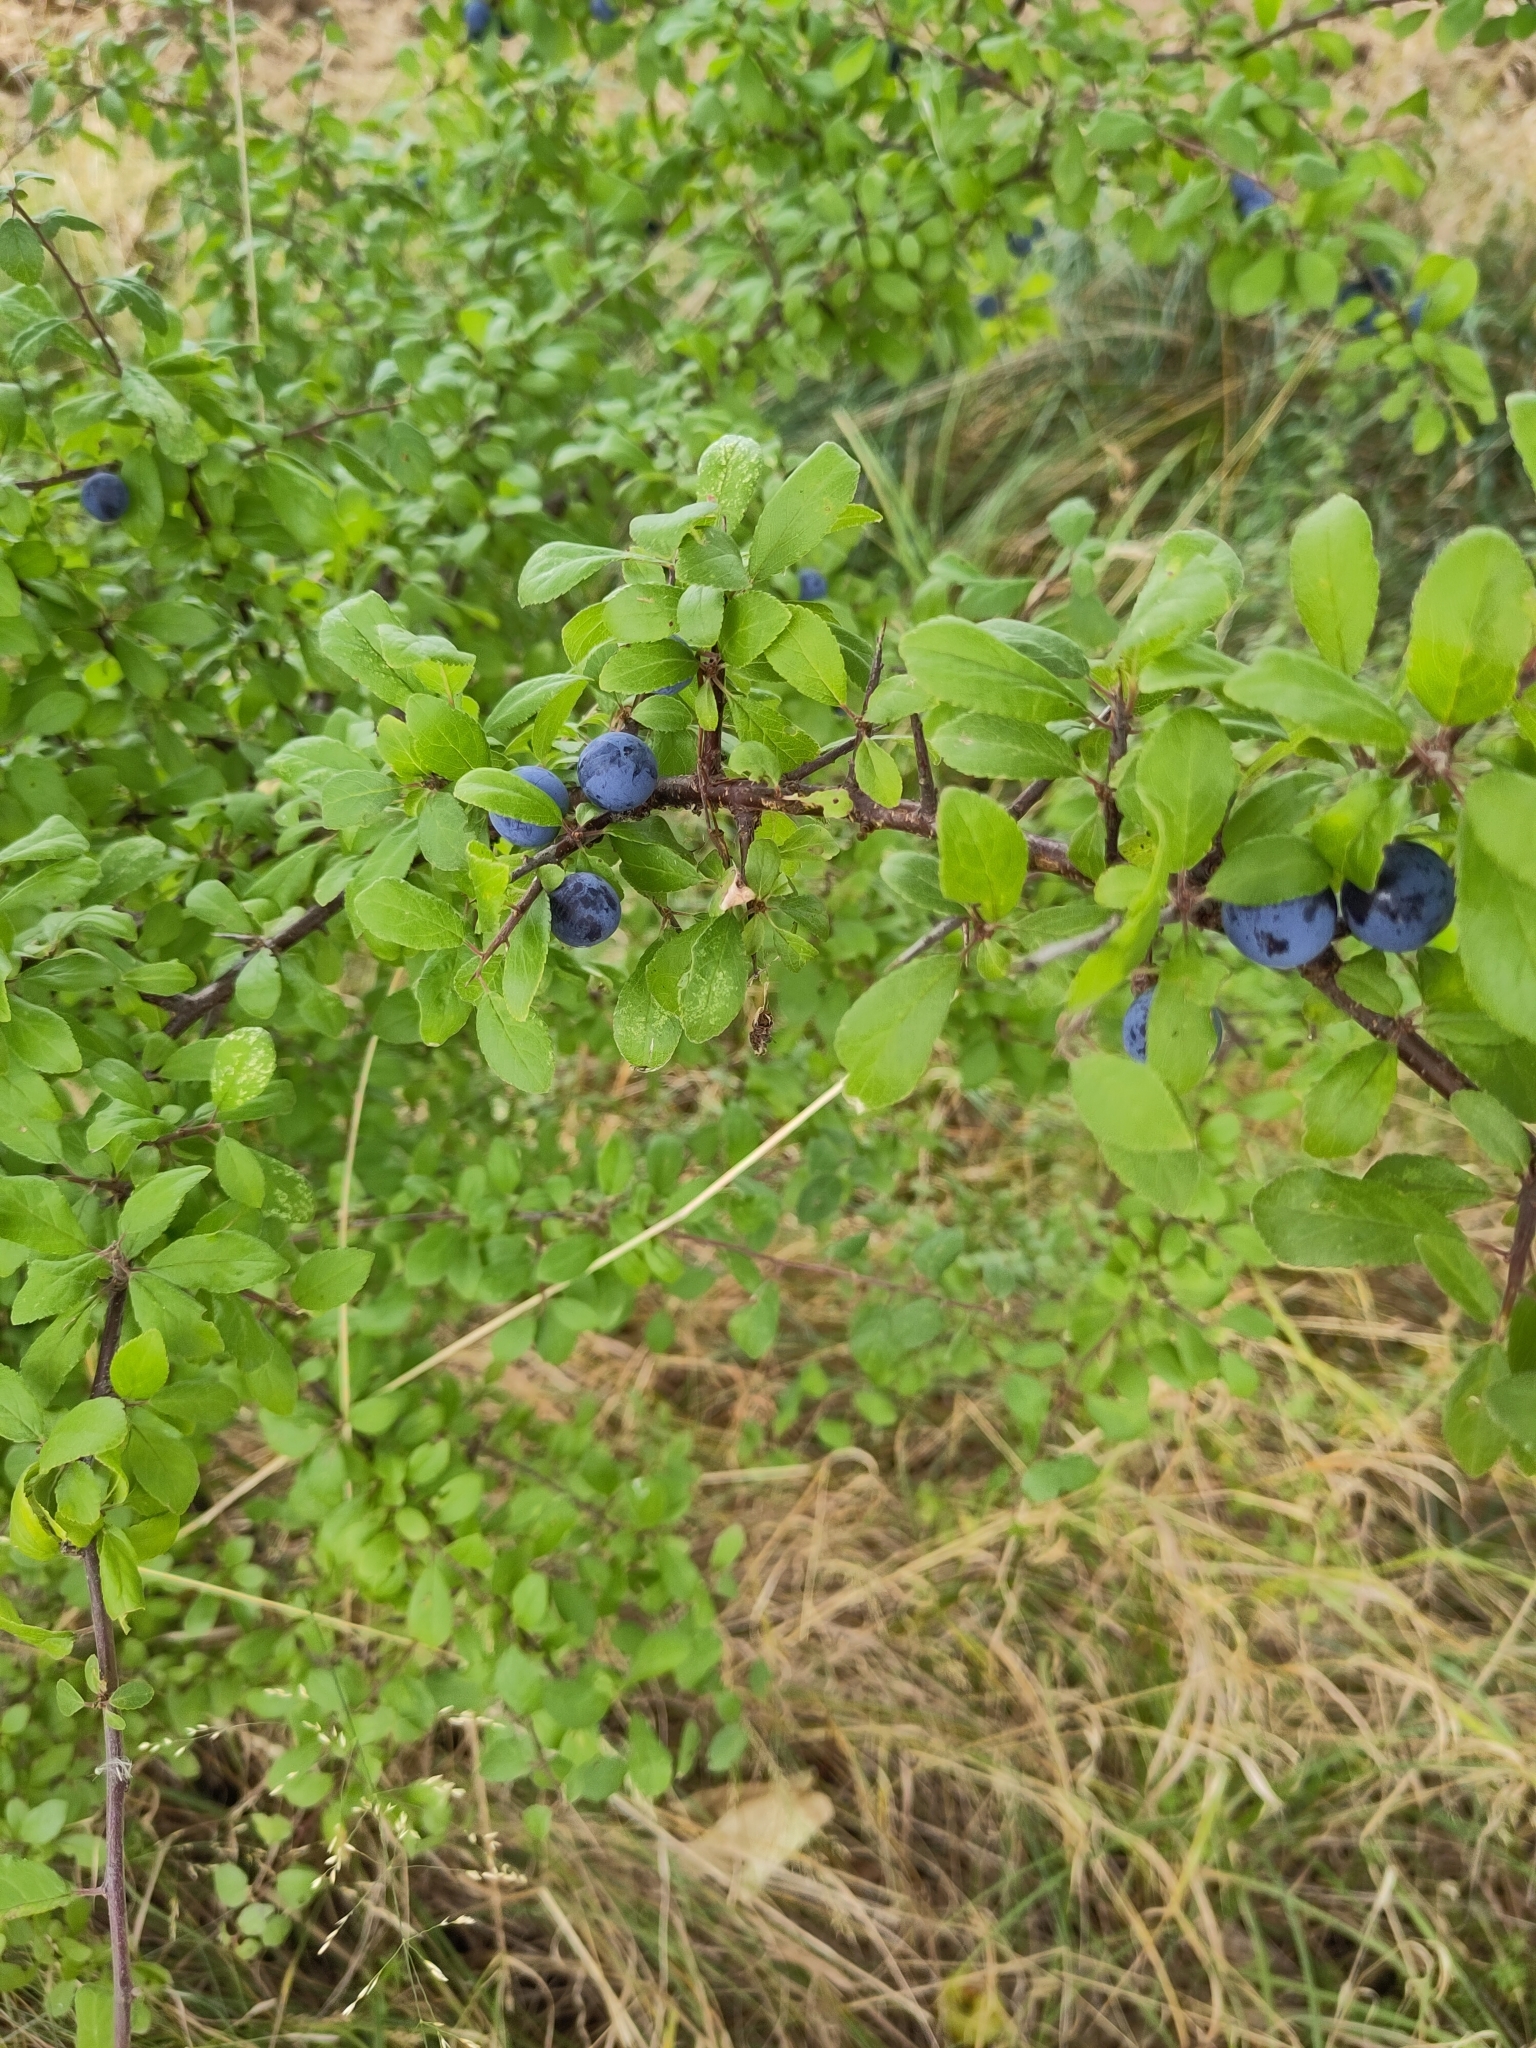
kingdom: Plantae
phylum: Tracheophyta
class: Magnoliopsida
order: Rosales
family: Rosaceae
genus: Prunus
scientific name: Prunus spinosa
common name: Blackthorn
